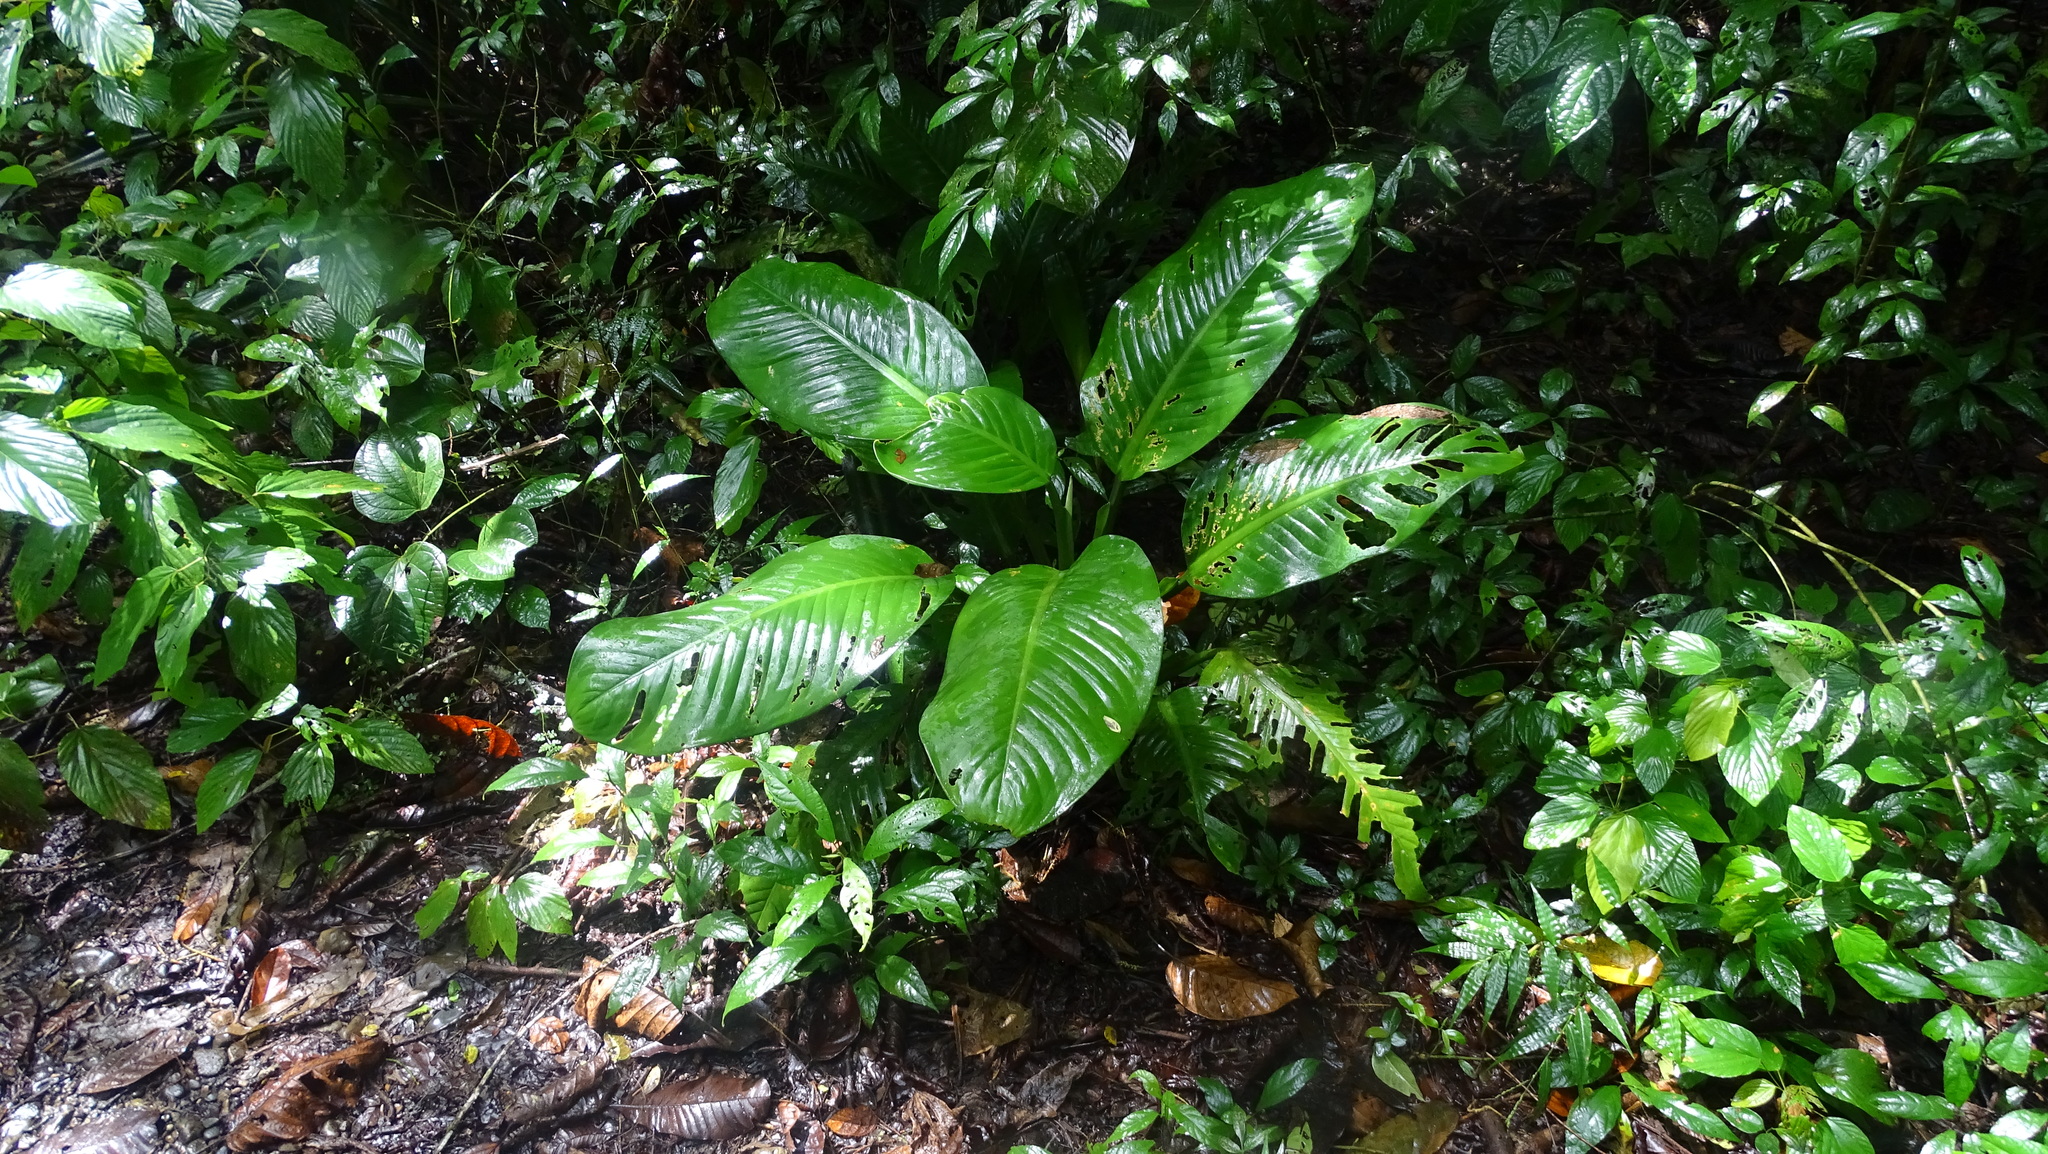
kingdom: Plantae
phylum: Tracheophyta
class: Liliopsida
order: Alismatales
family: Araceae
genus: Dieffenbachia
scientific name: Dieffenbachia longispatha
